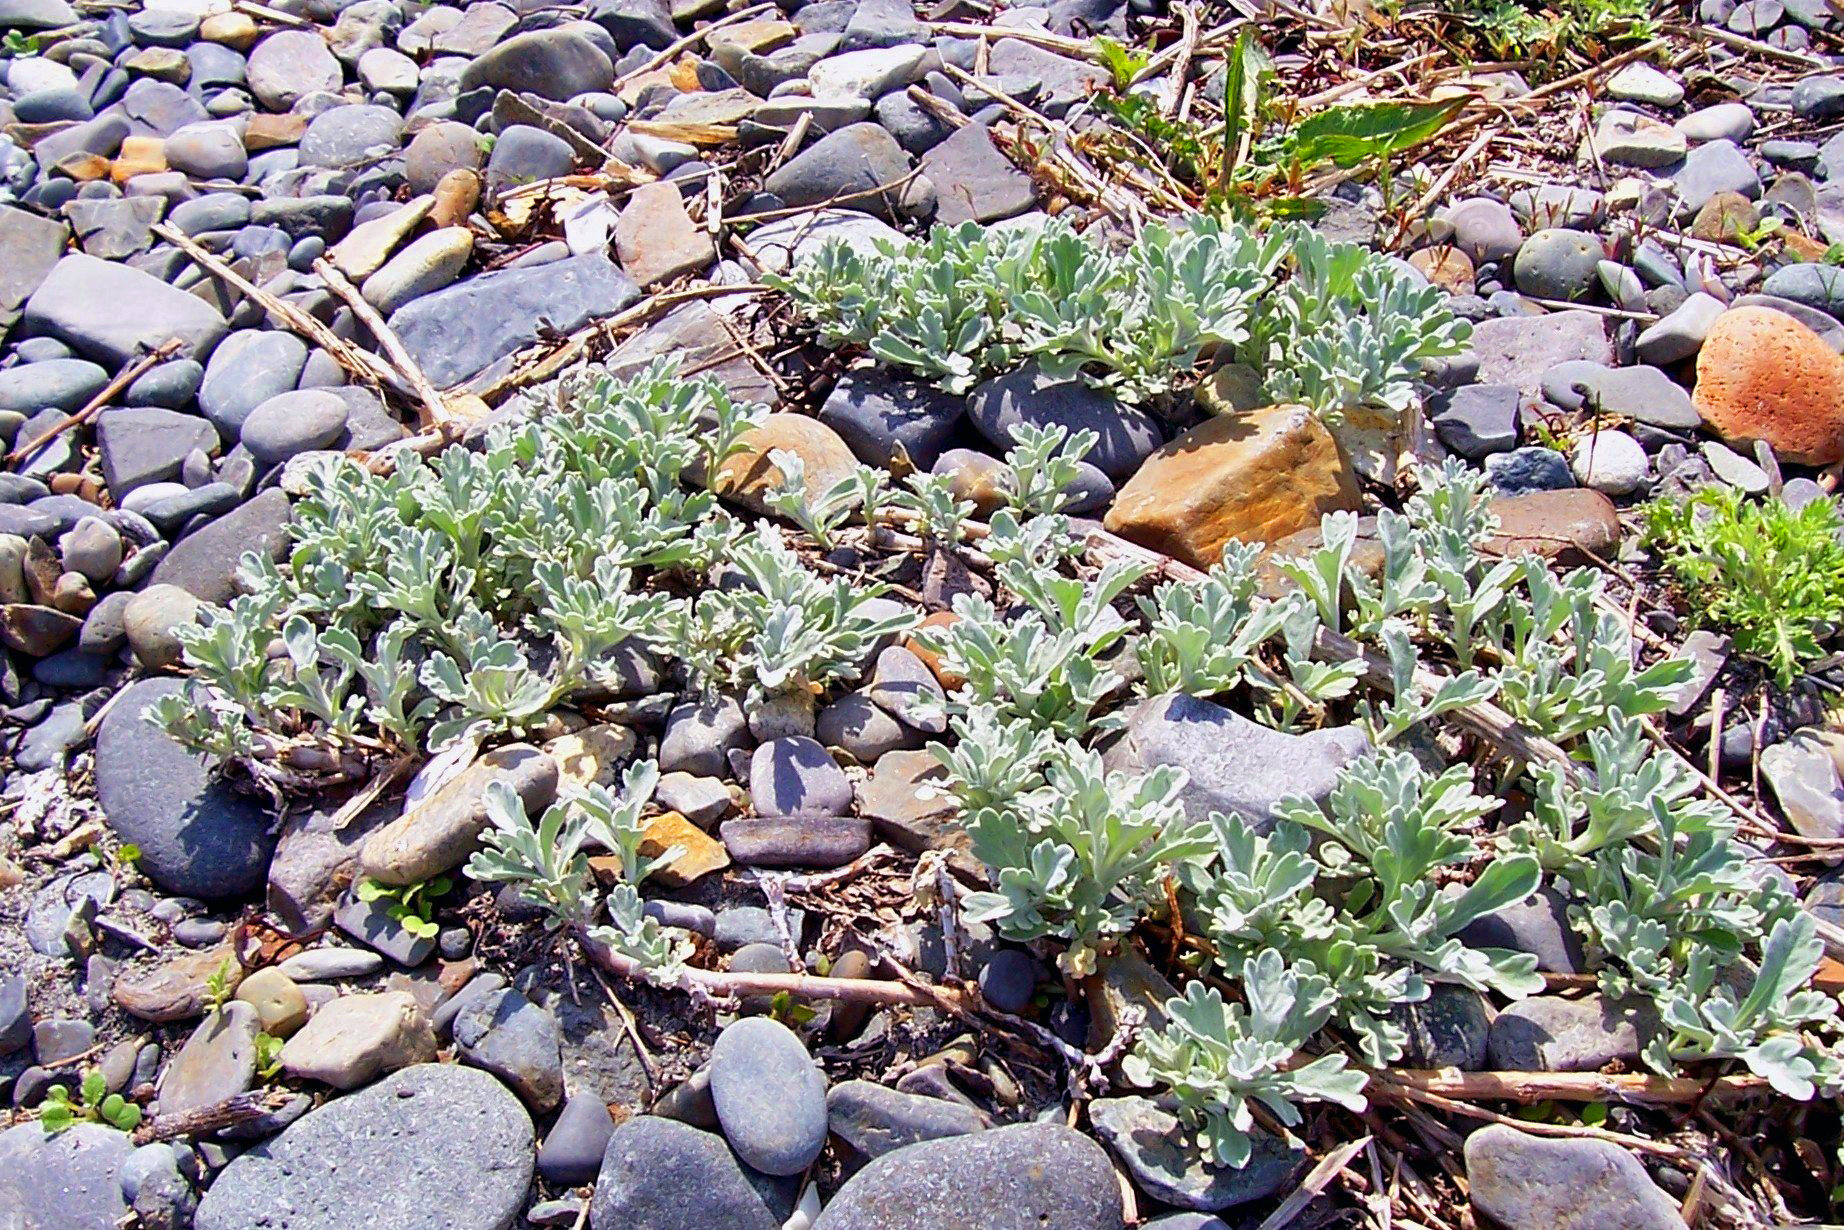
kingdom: Plantae
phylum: Tracheophyta
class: Magnoliopsida
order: Asterales
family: Asteraceae
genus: Artemisia
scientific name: Artemisia stelleriana
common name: Beach wormwood
